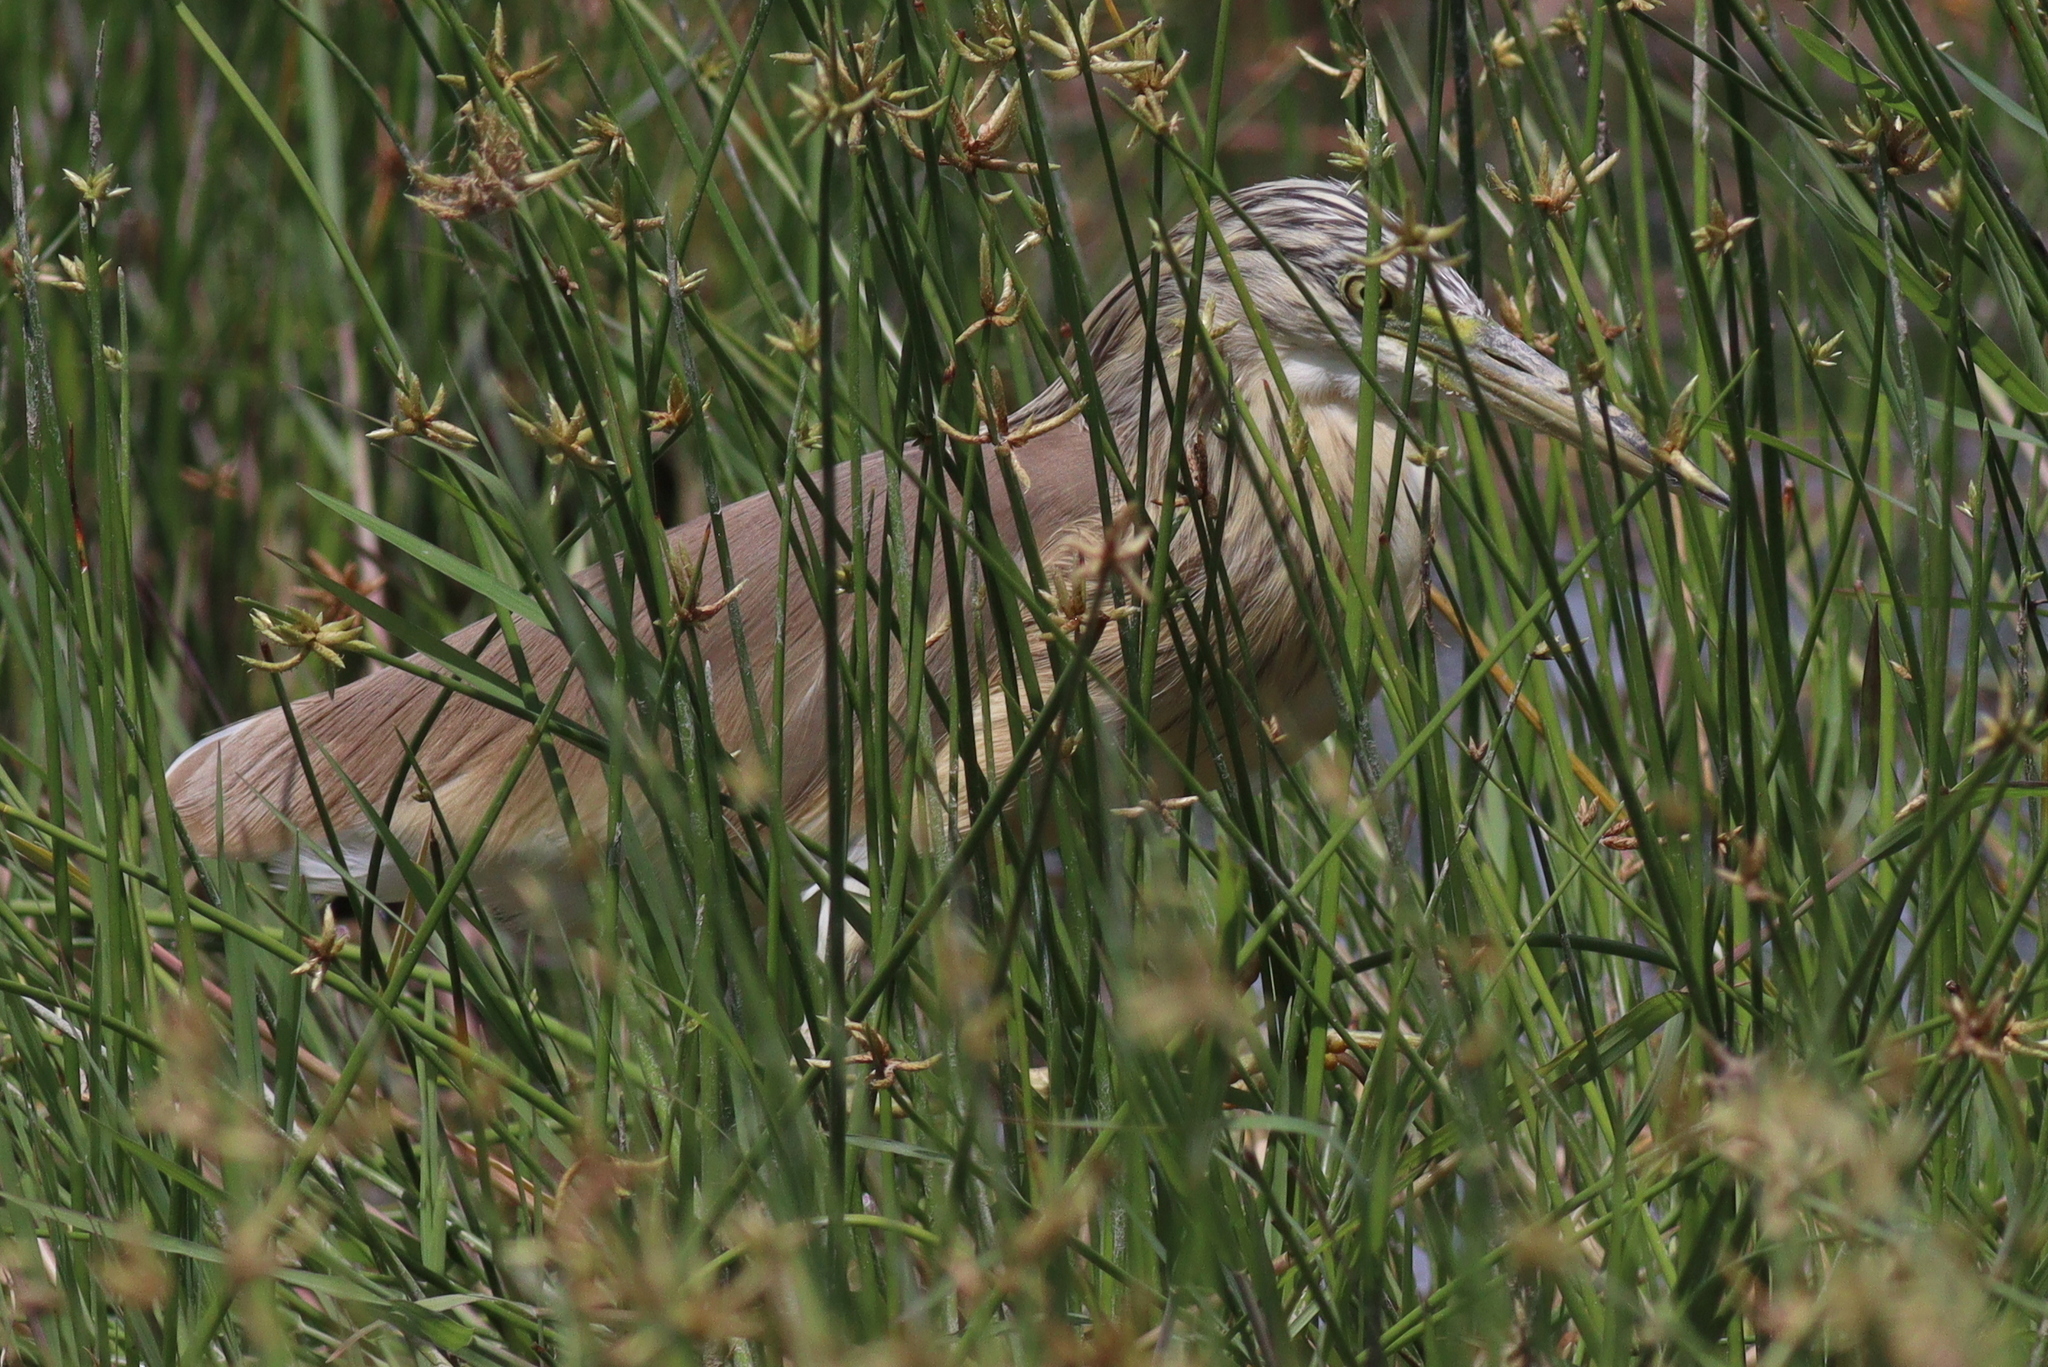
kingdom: Animalia
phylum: Chordata
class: Aves
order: Pelecaniformes
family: Ardeidae
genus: Ardeola
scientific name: Ardeola ralloides
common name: Squacco heron
